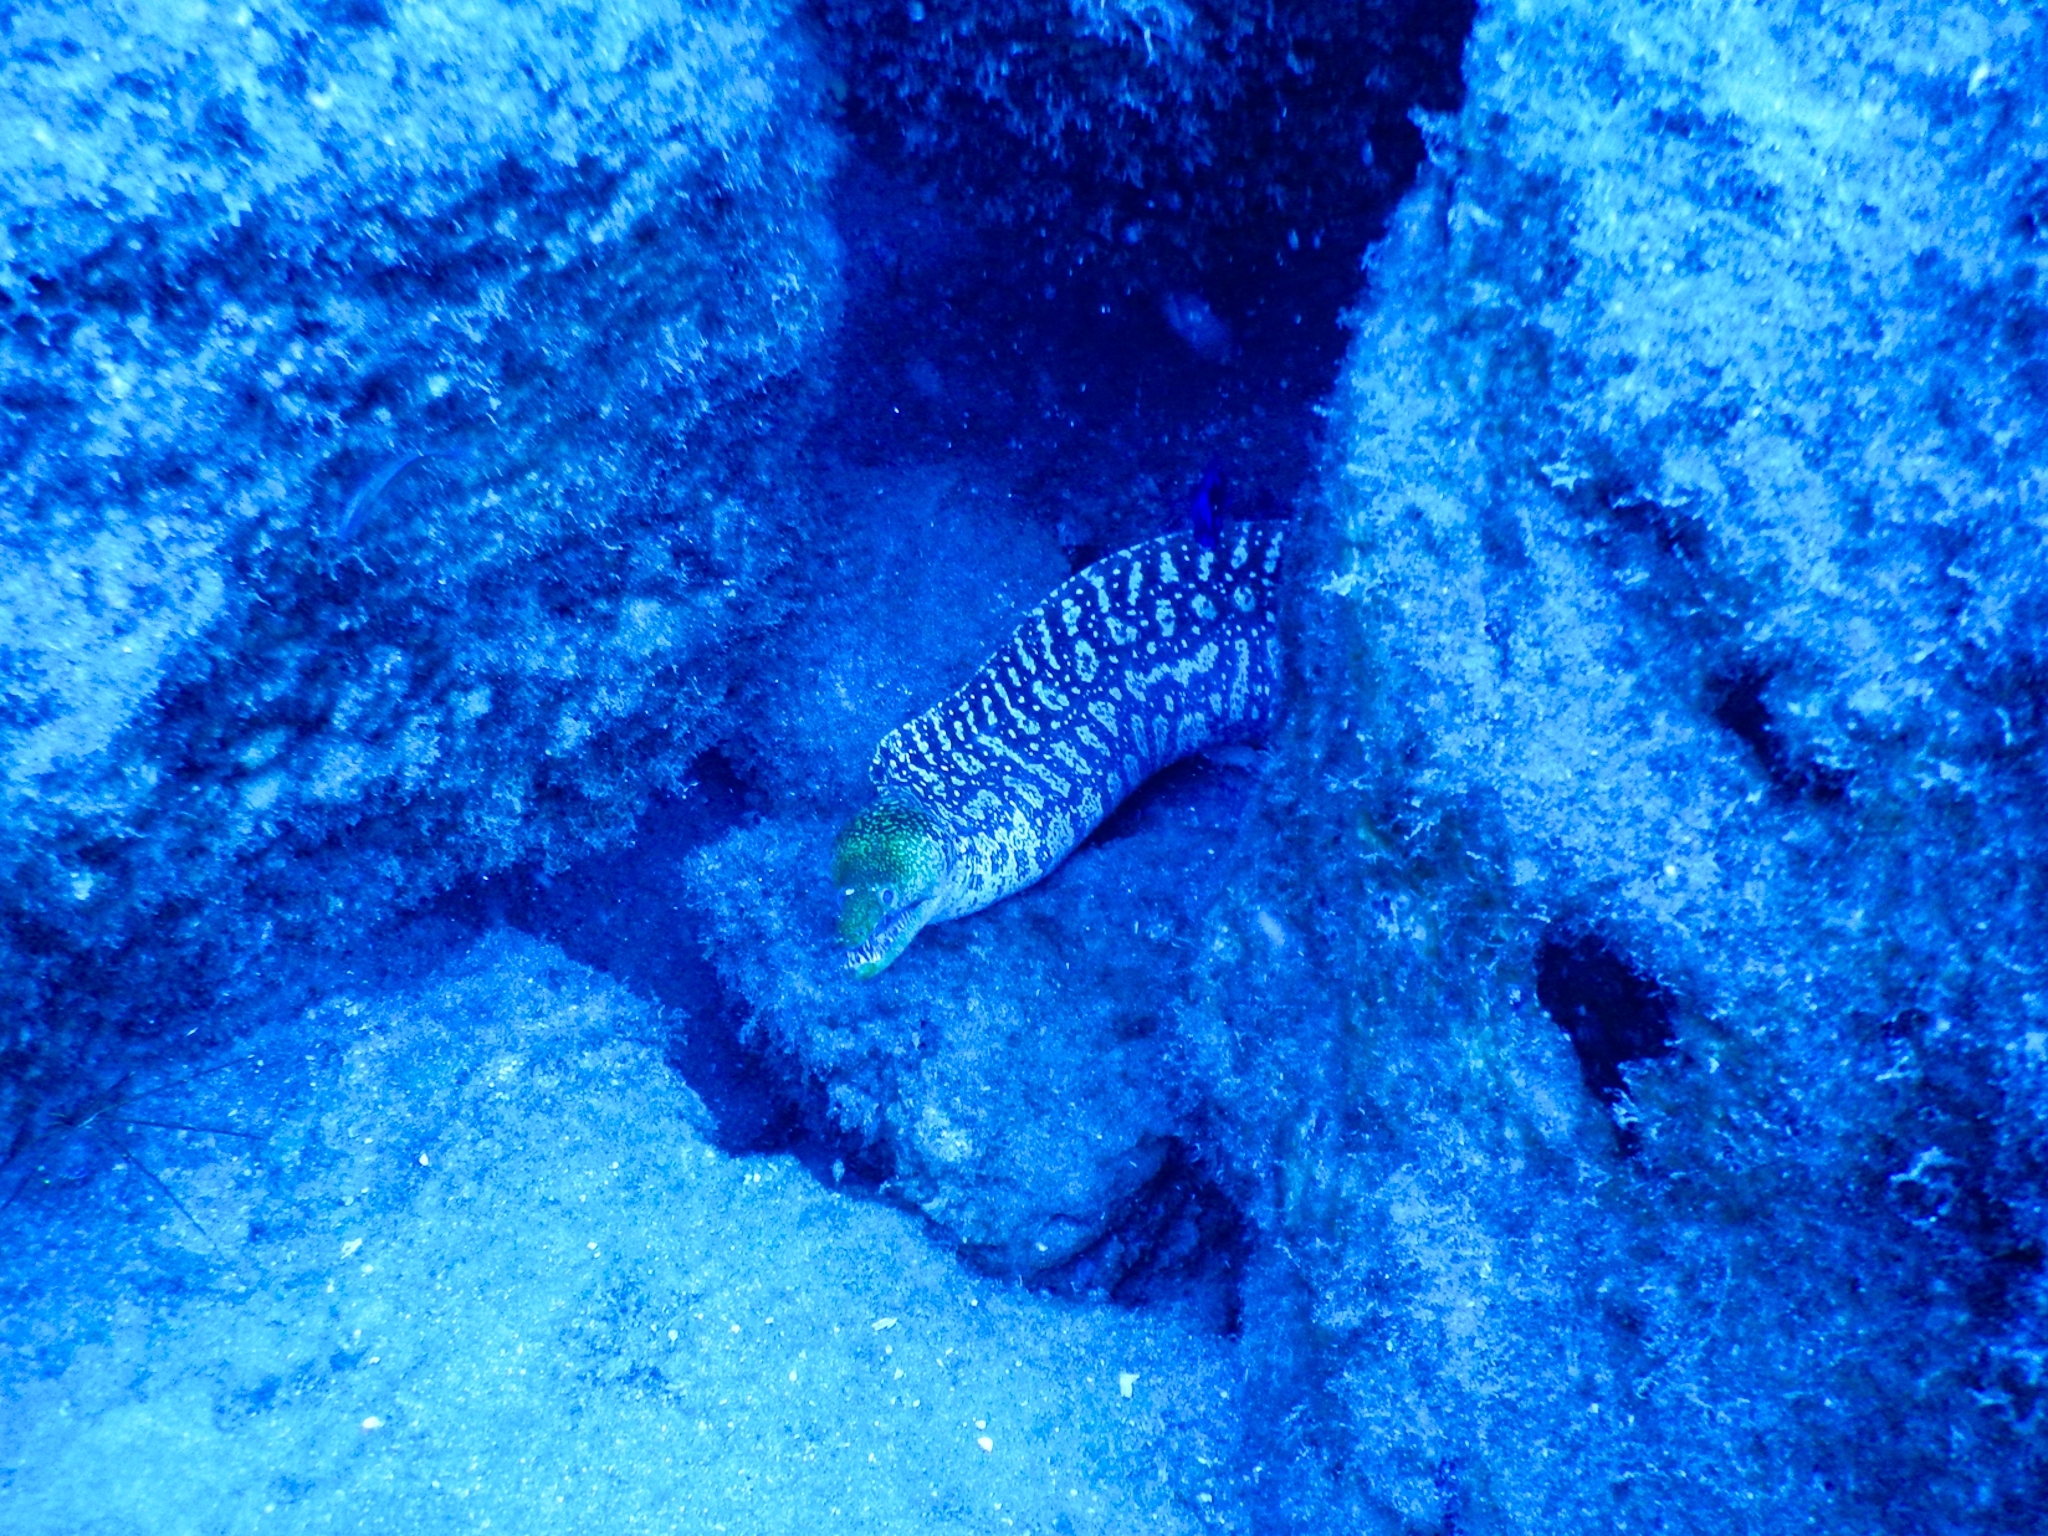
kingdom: Animalia
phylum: Chordata
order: Anguilliformes
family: Muraenidae
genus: Enchelycore
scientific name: Enchelycore anatina
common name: Fangtooth moray
